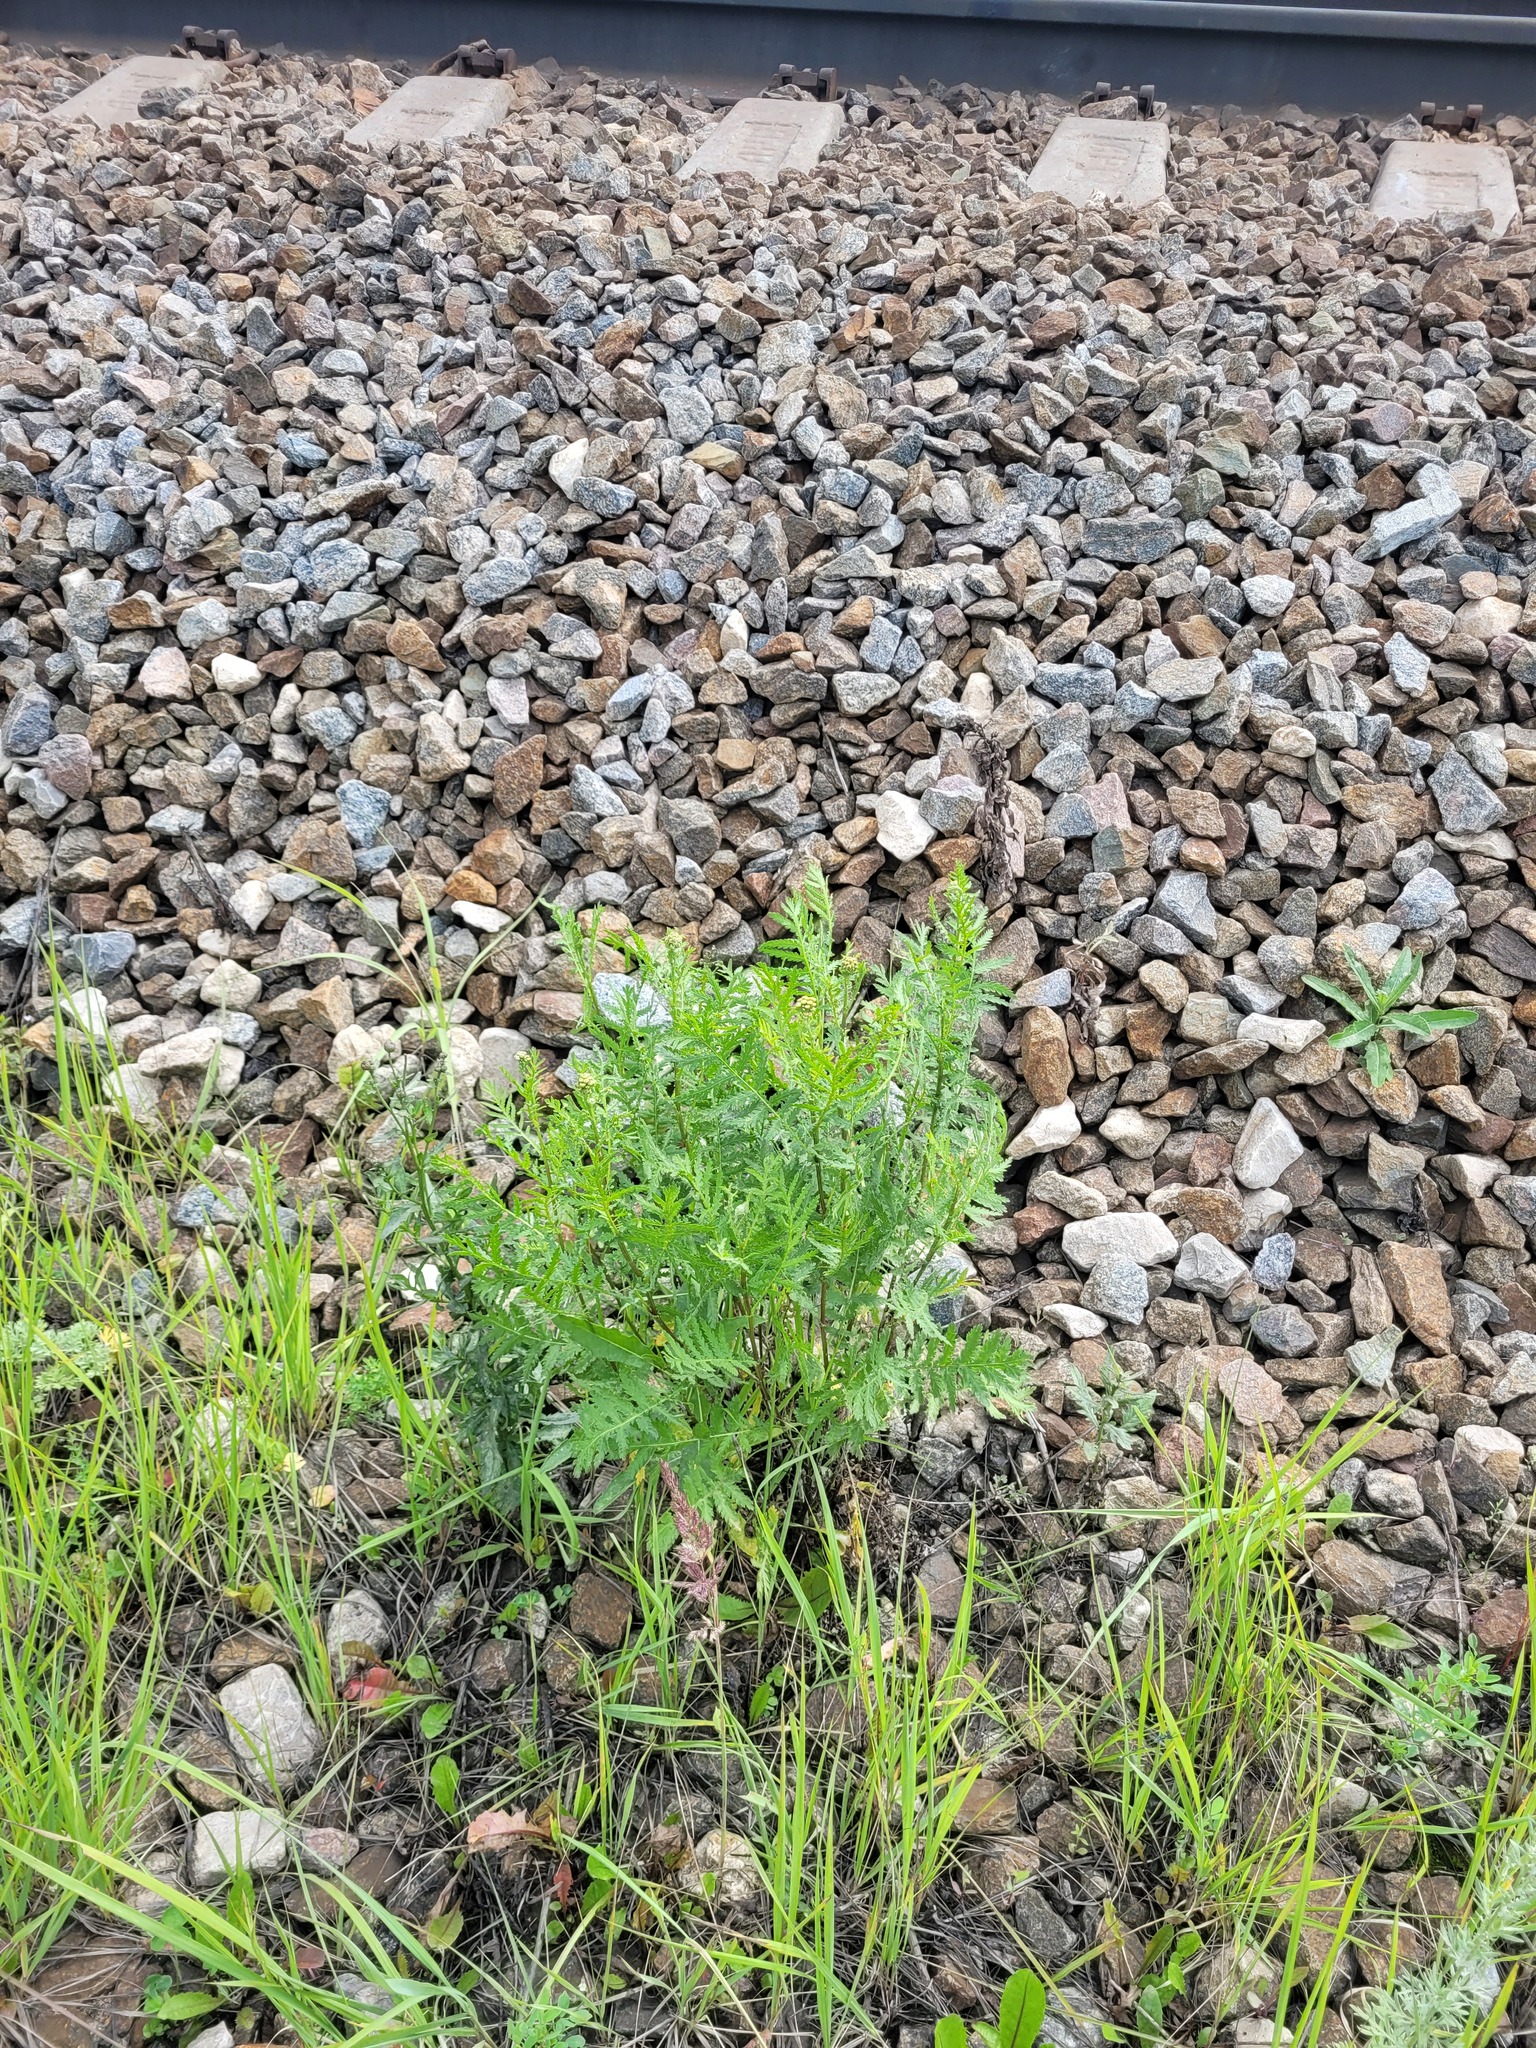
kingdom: Plantae
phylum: Tracheophyta
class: Magnoliopsida
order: Asterales
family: Asteraceae
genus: Tanacetum
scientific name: Tanacetum vulgare
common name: Common tansy
